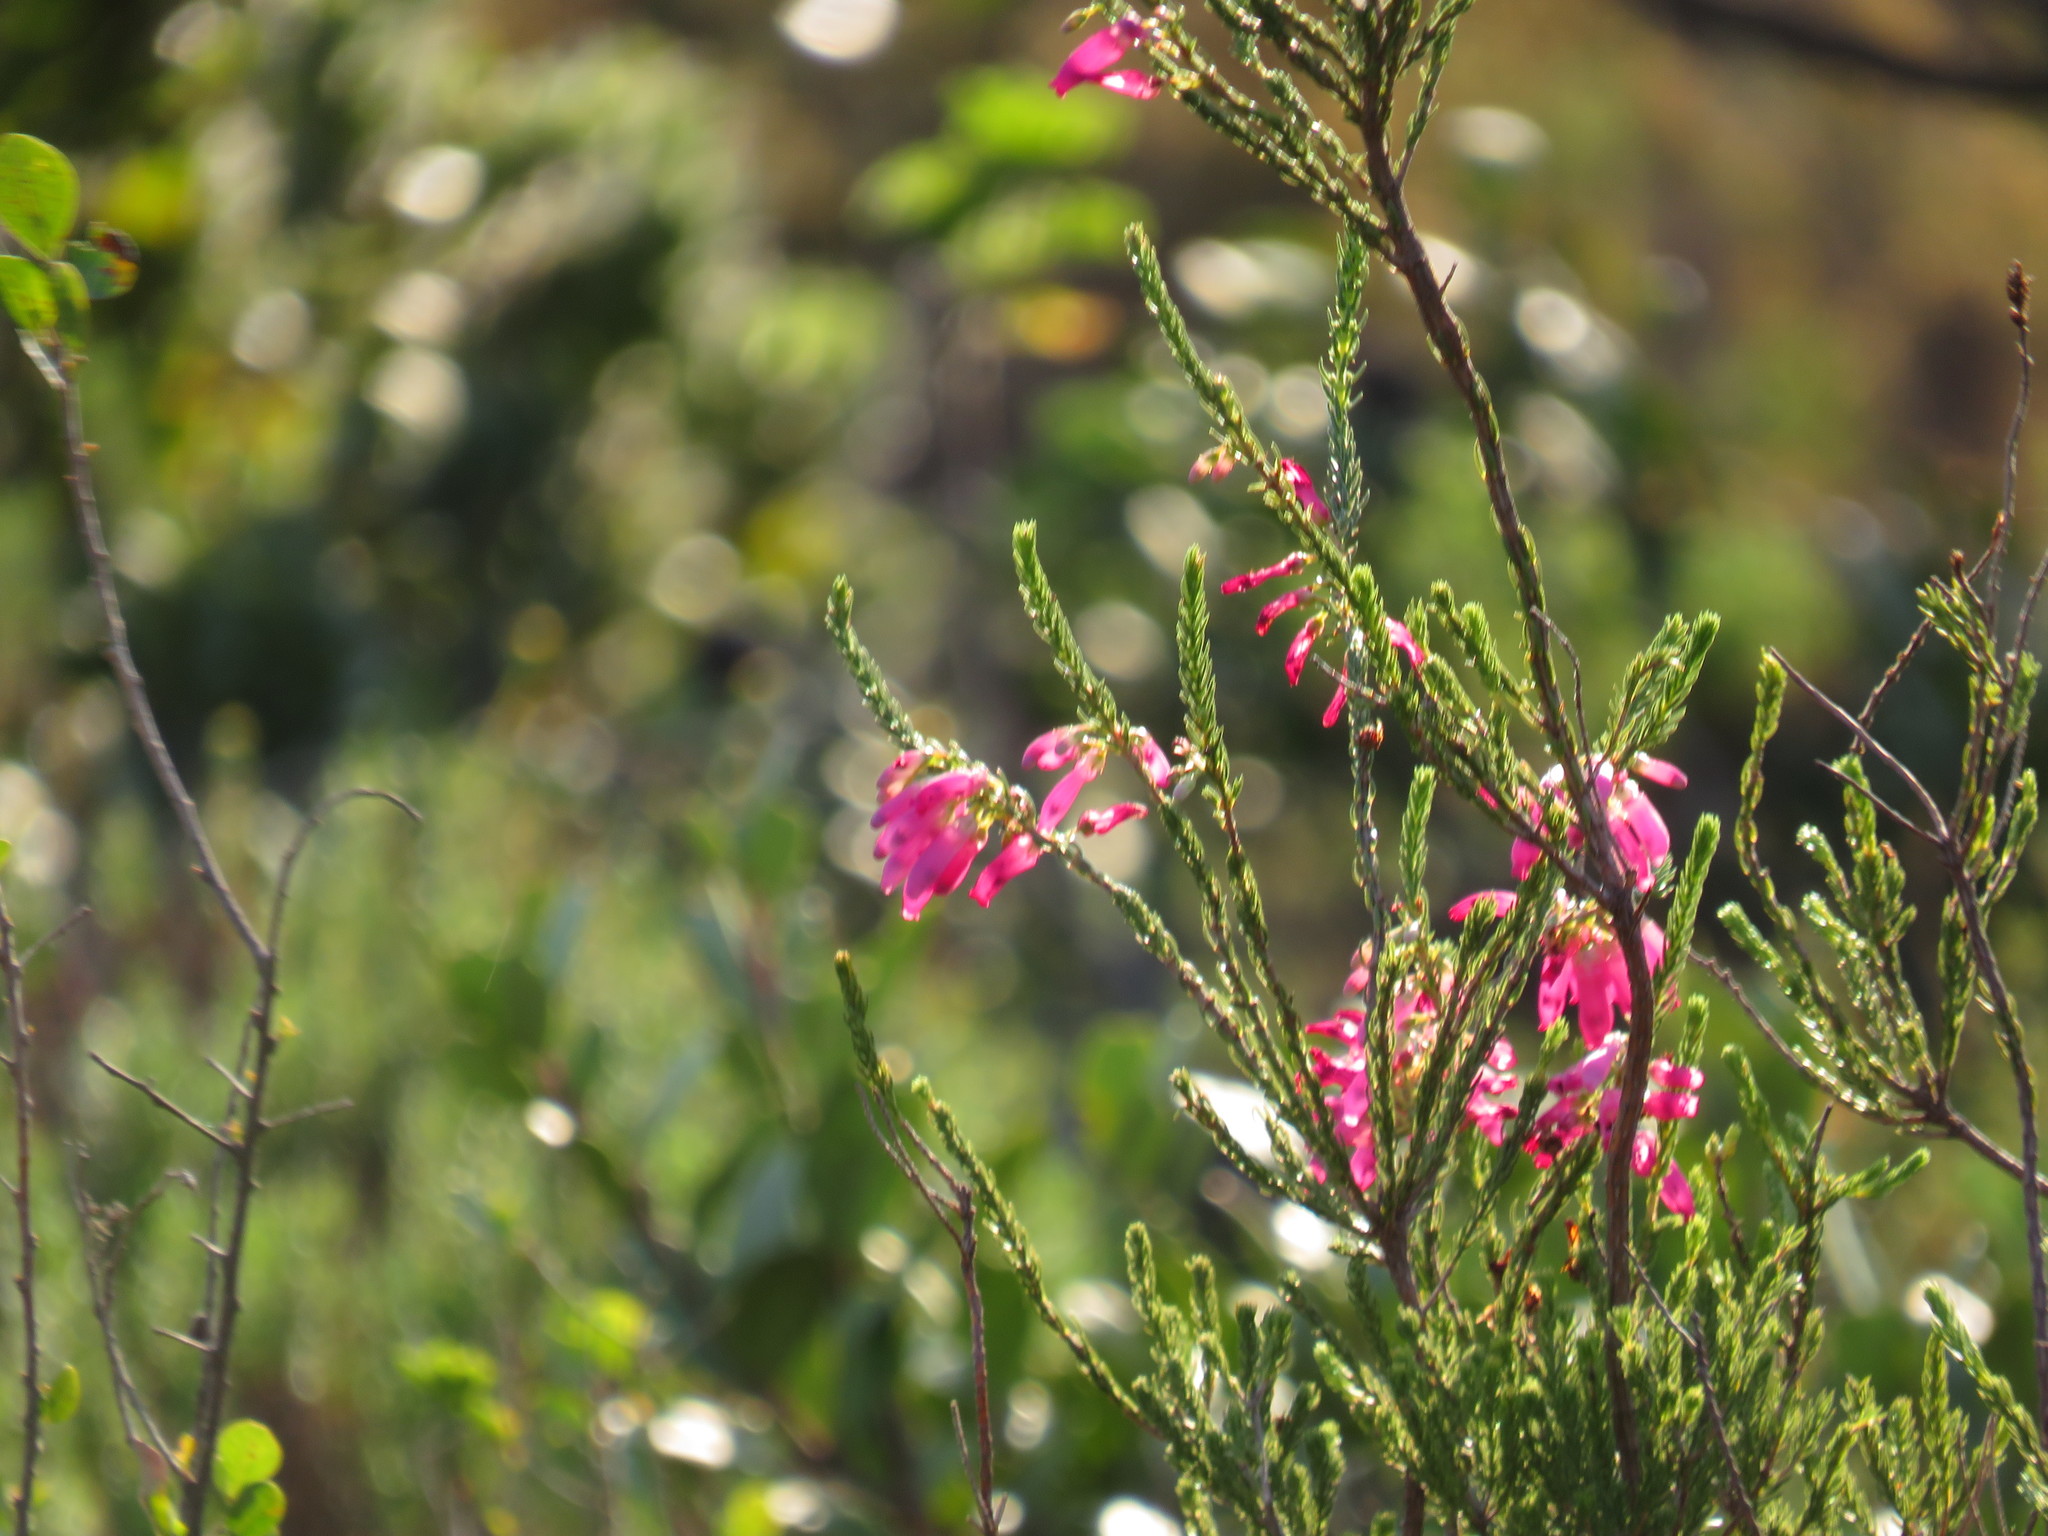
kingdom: Plantae
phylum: Tracheophyta
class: Magnoliopsida
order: Ericales
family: Ericaceae
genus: Erica
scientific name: Erica mammosa
